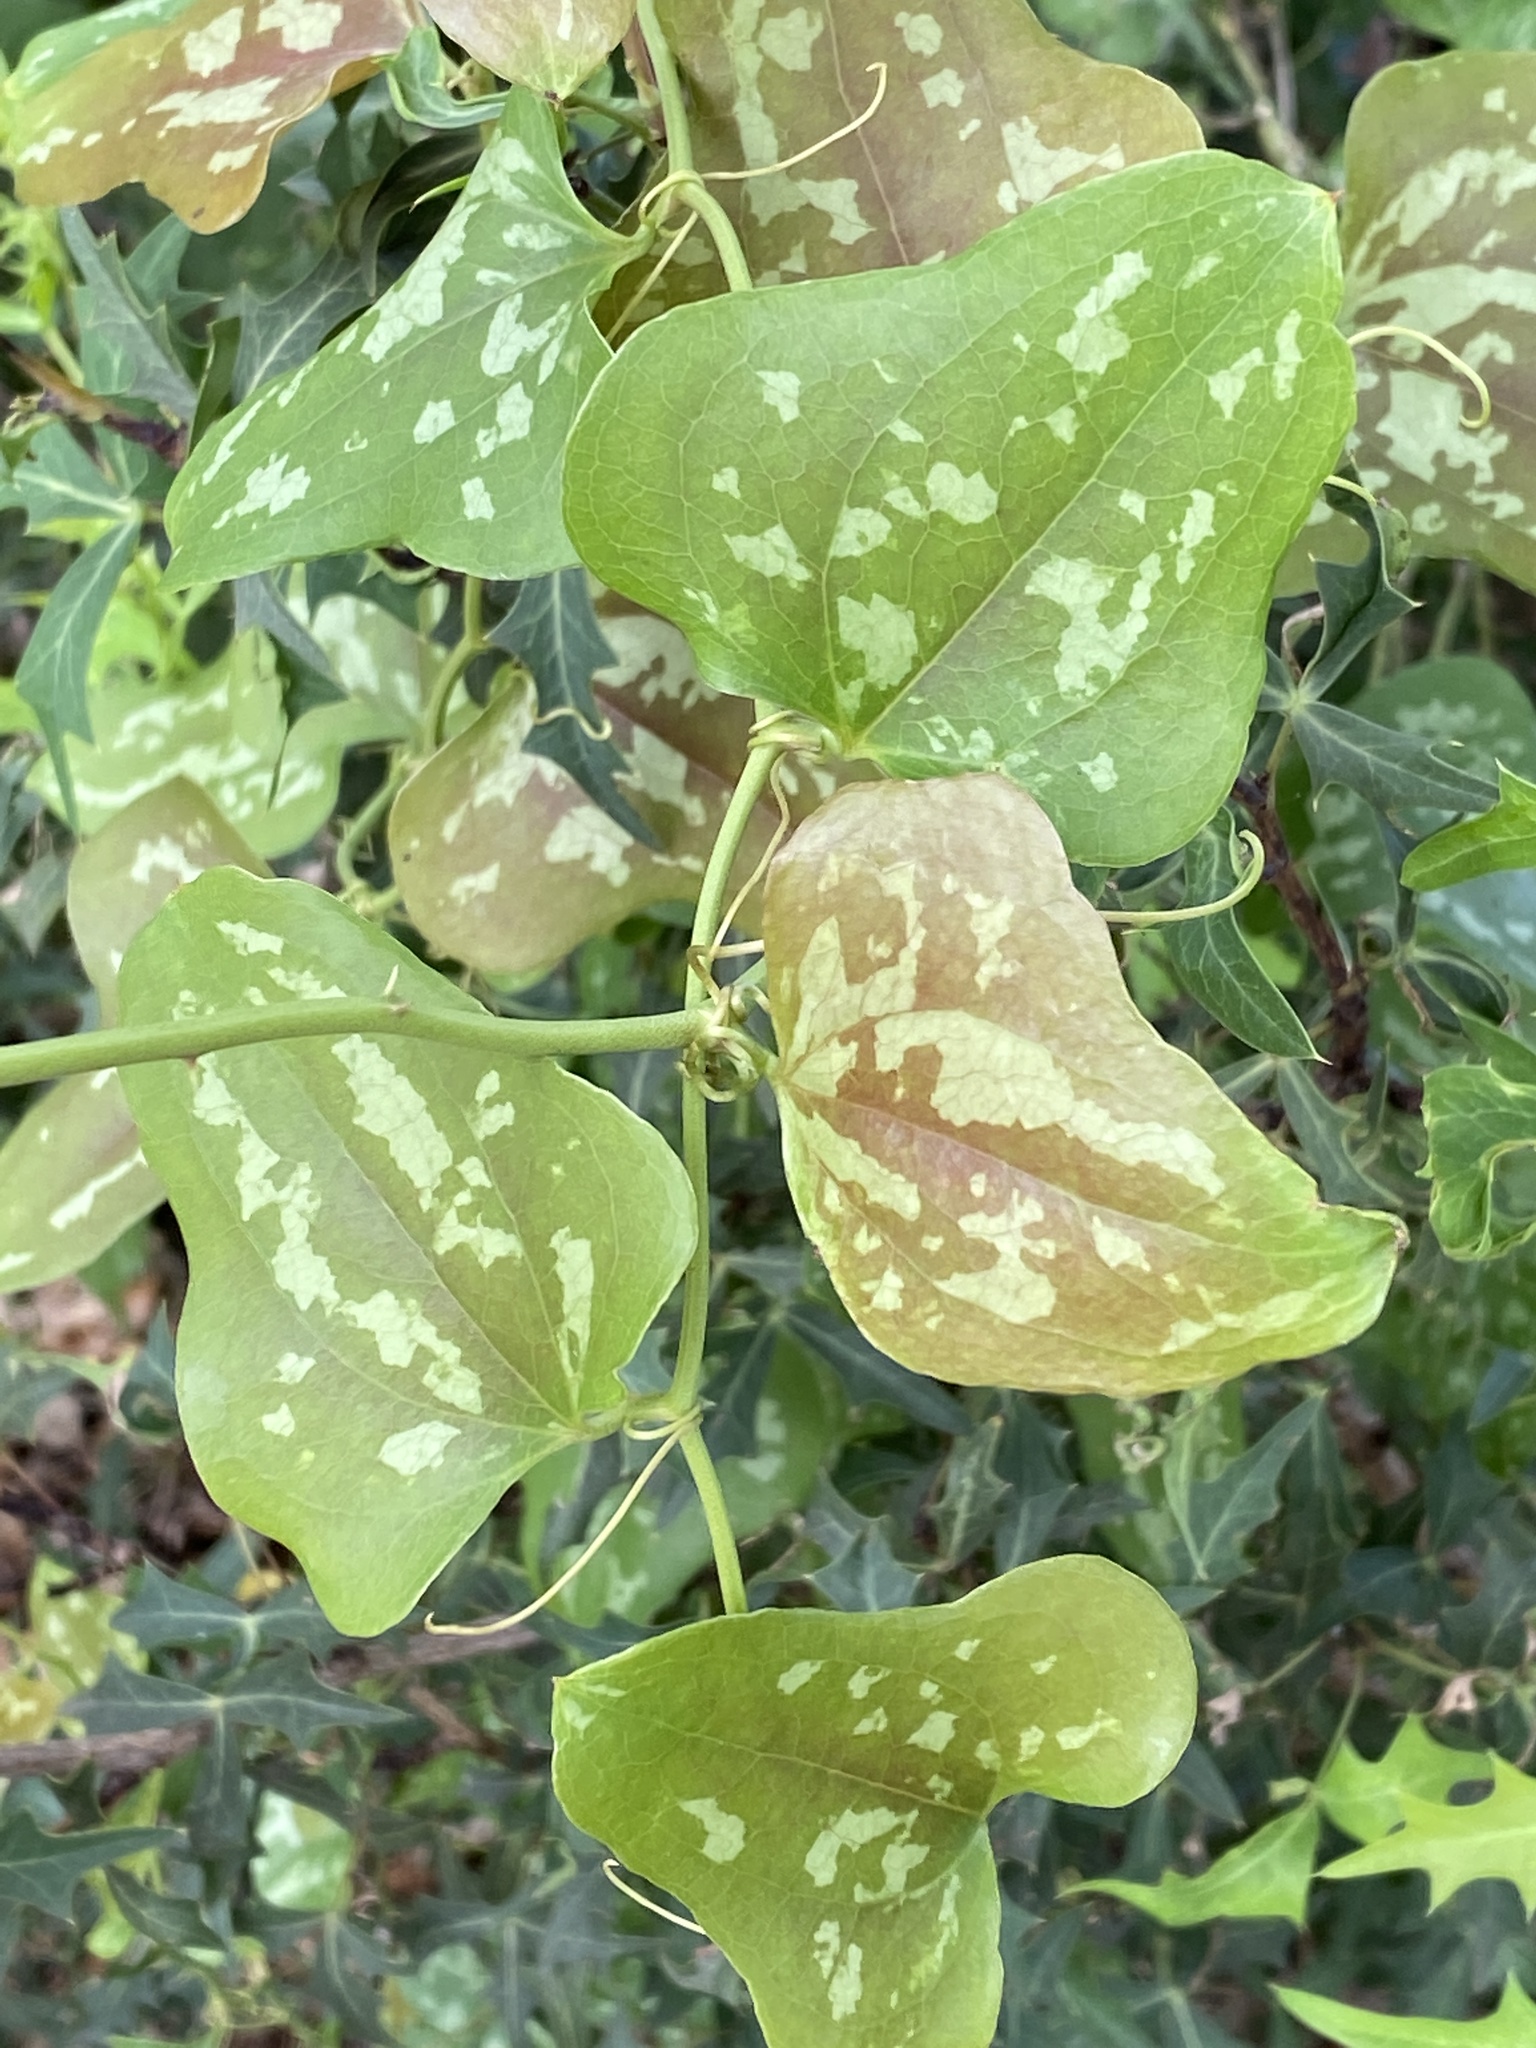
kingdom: Plantae
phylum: Tracheophyta
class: Liliopsida
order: Liliales
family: Smilacaceae
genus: Smilax
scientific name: Smilax bona-nox
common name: Catbrier
